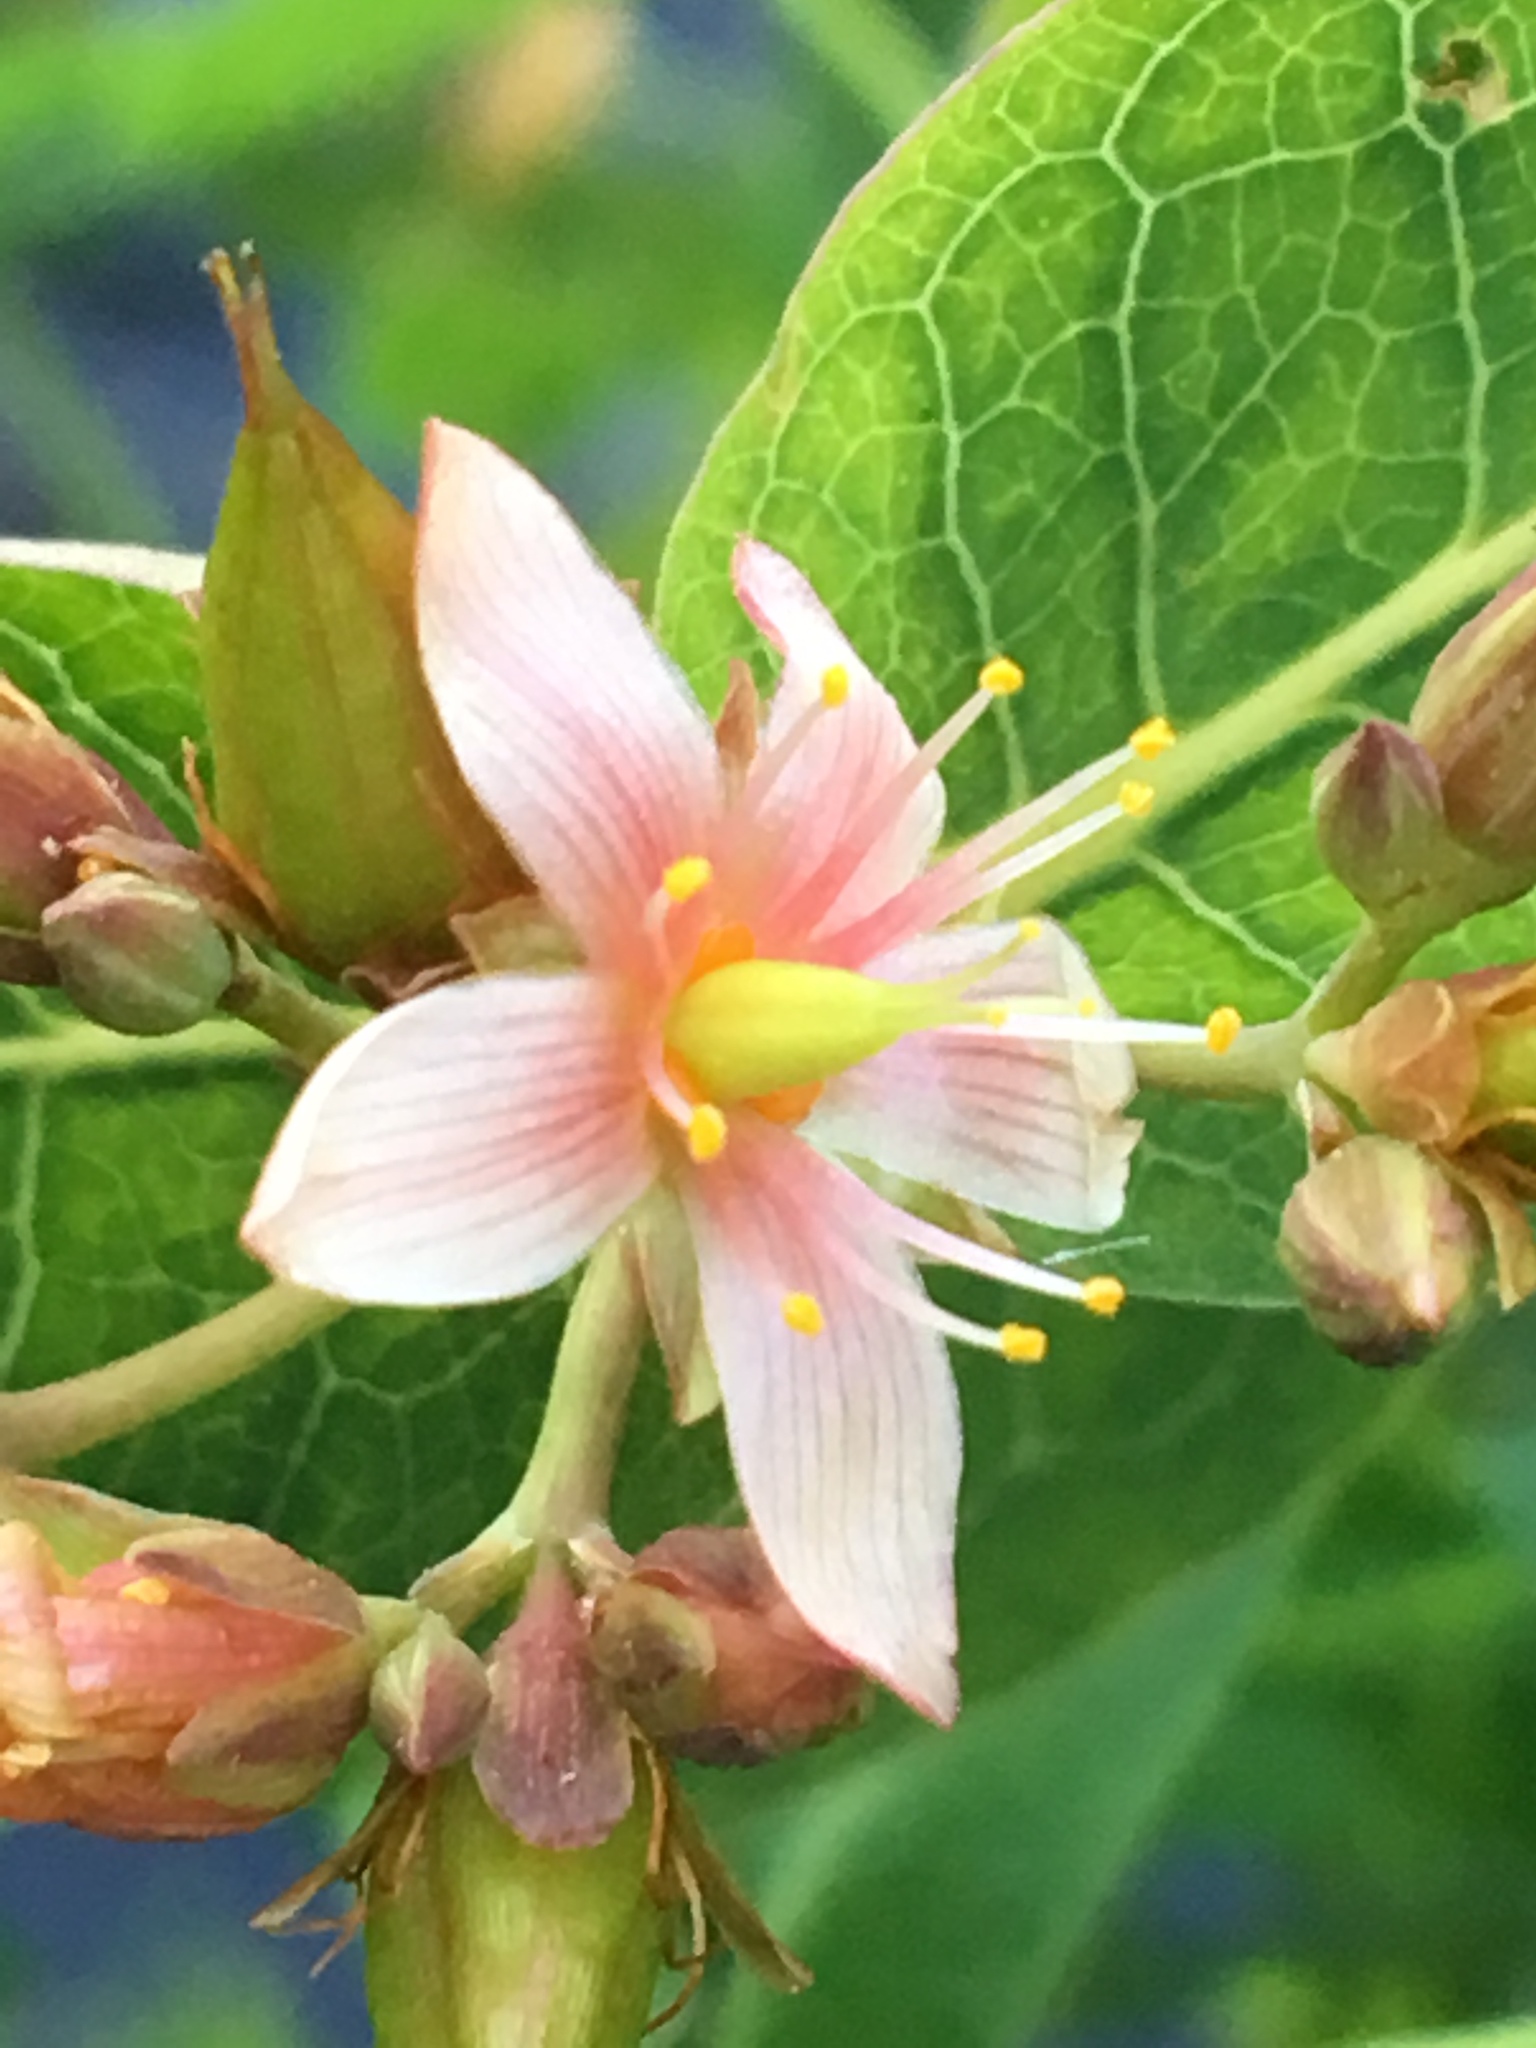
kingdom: Plantae
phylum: Tracheophyta
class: Magnoliopsida
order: Malpighiales
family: Hypericaceae
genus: Triadenum
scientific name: Triadenum virginicum
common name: Marsh st. john's-wort
